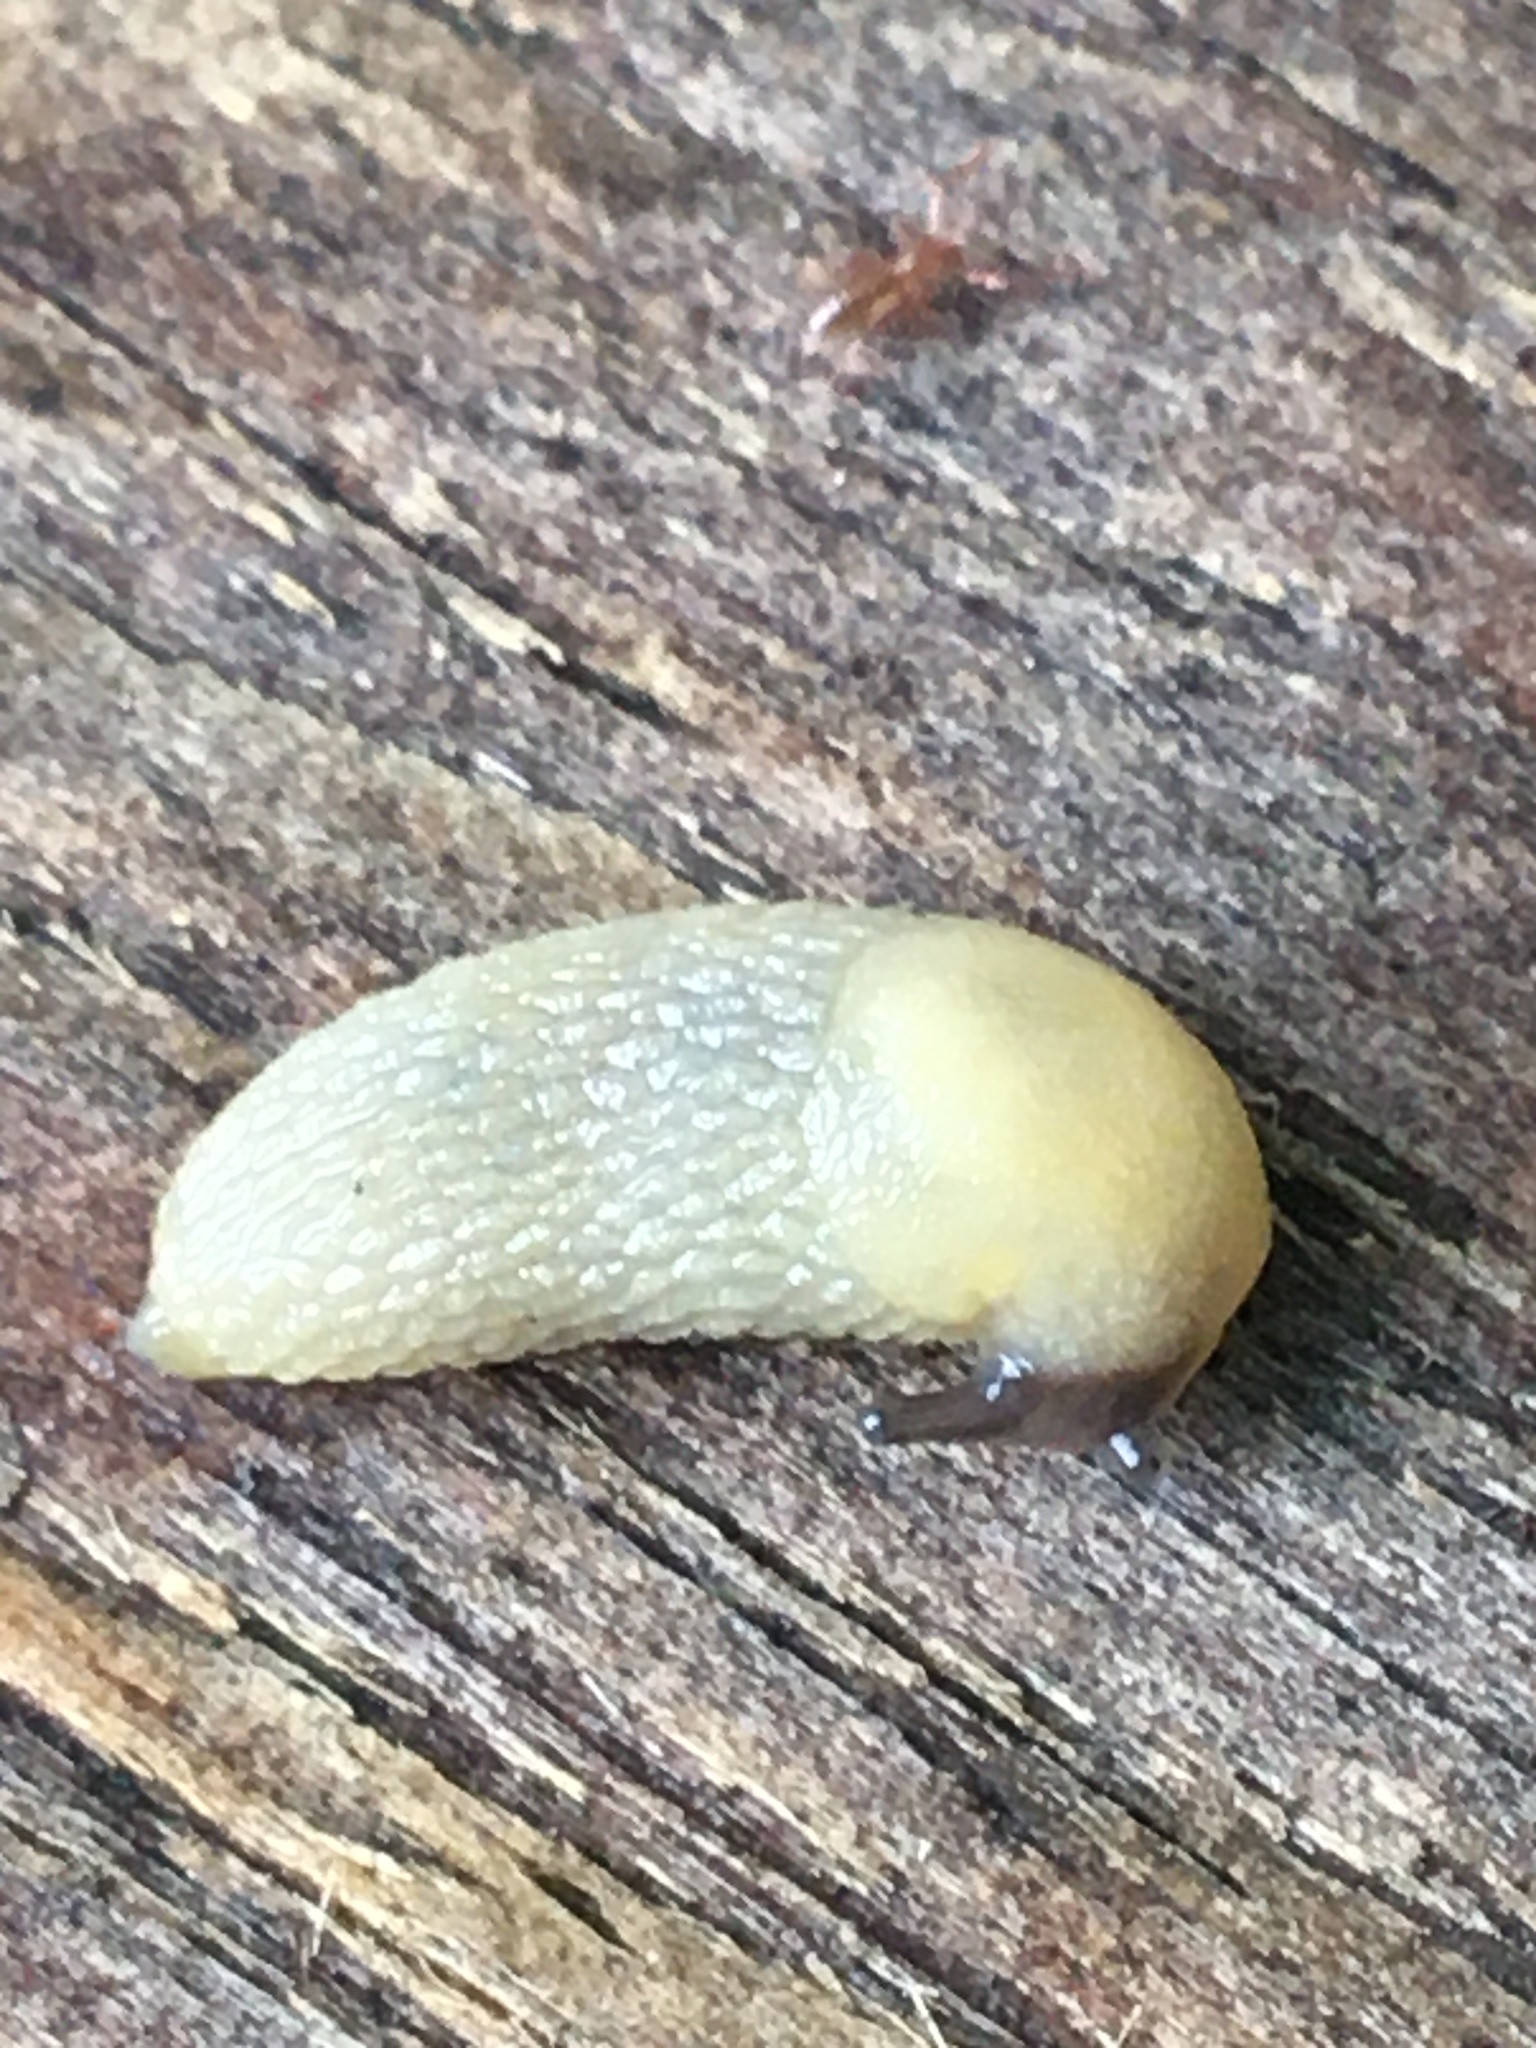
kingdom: Animalia
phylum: Mollusca
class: Gastropoda
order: Stylommatophora
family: Arionidae
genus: Arion
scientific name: Arion intermedius
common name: Hedgehog slug
